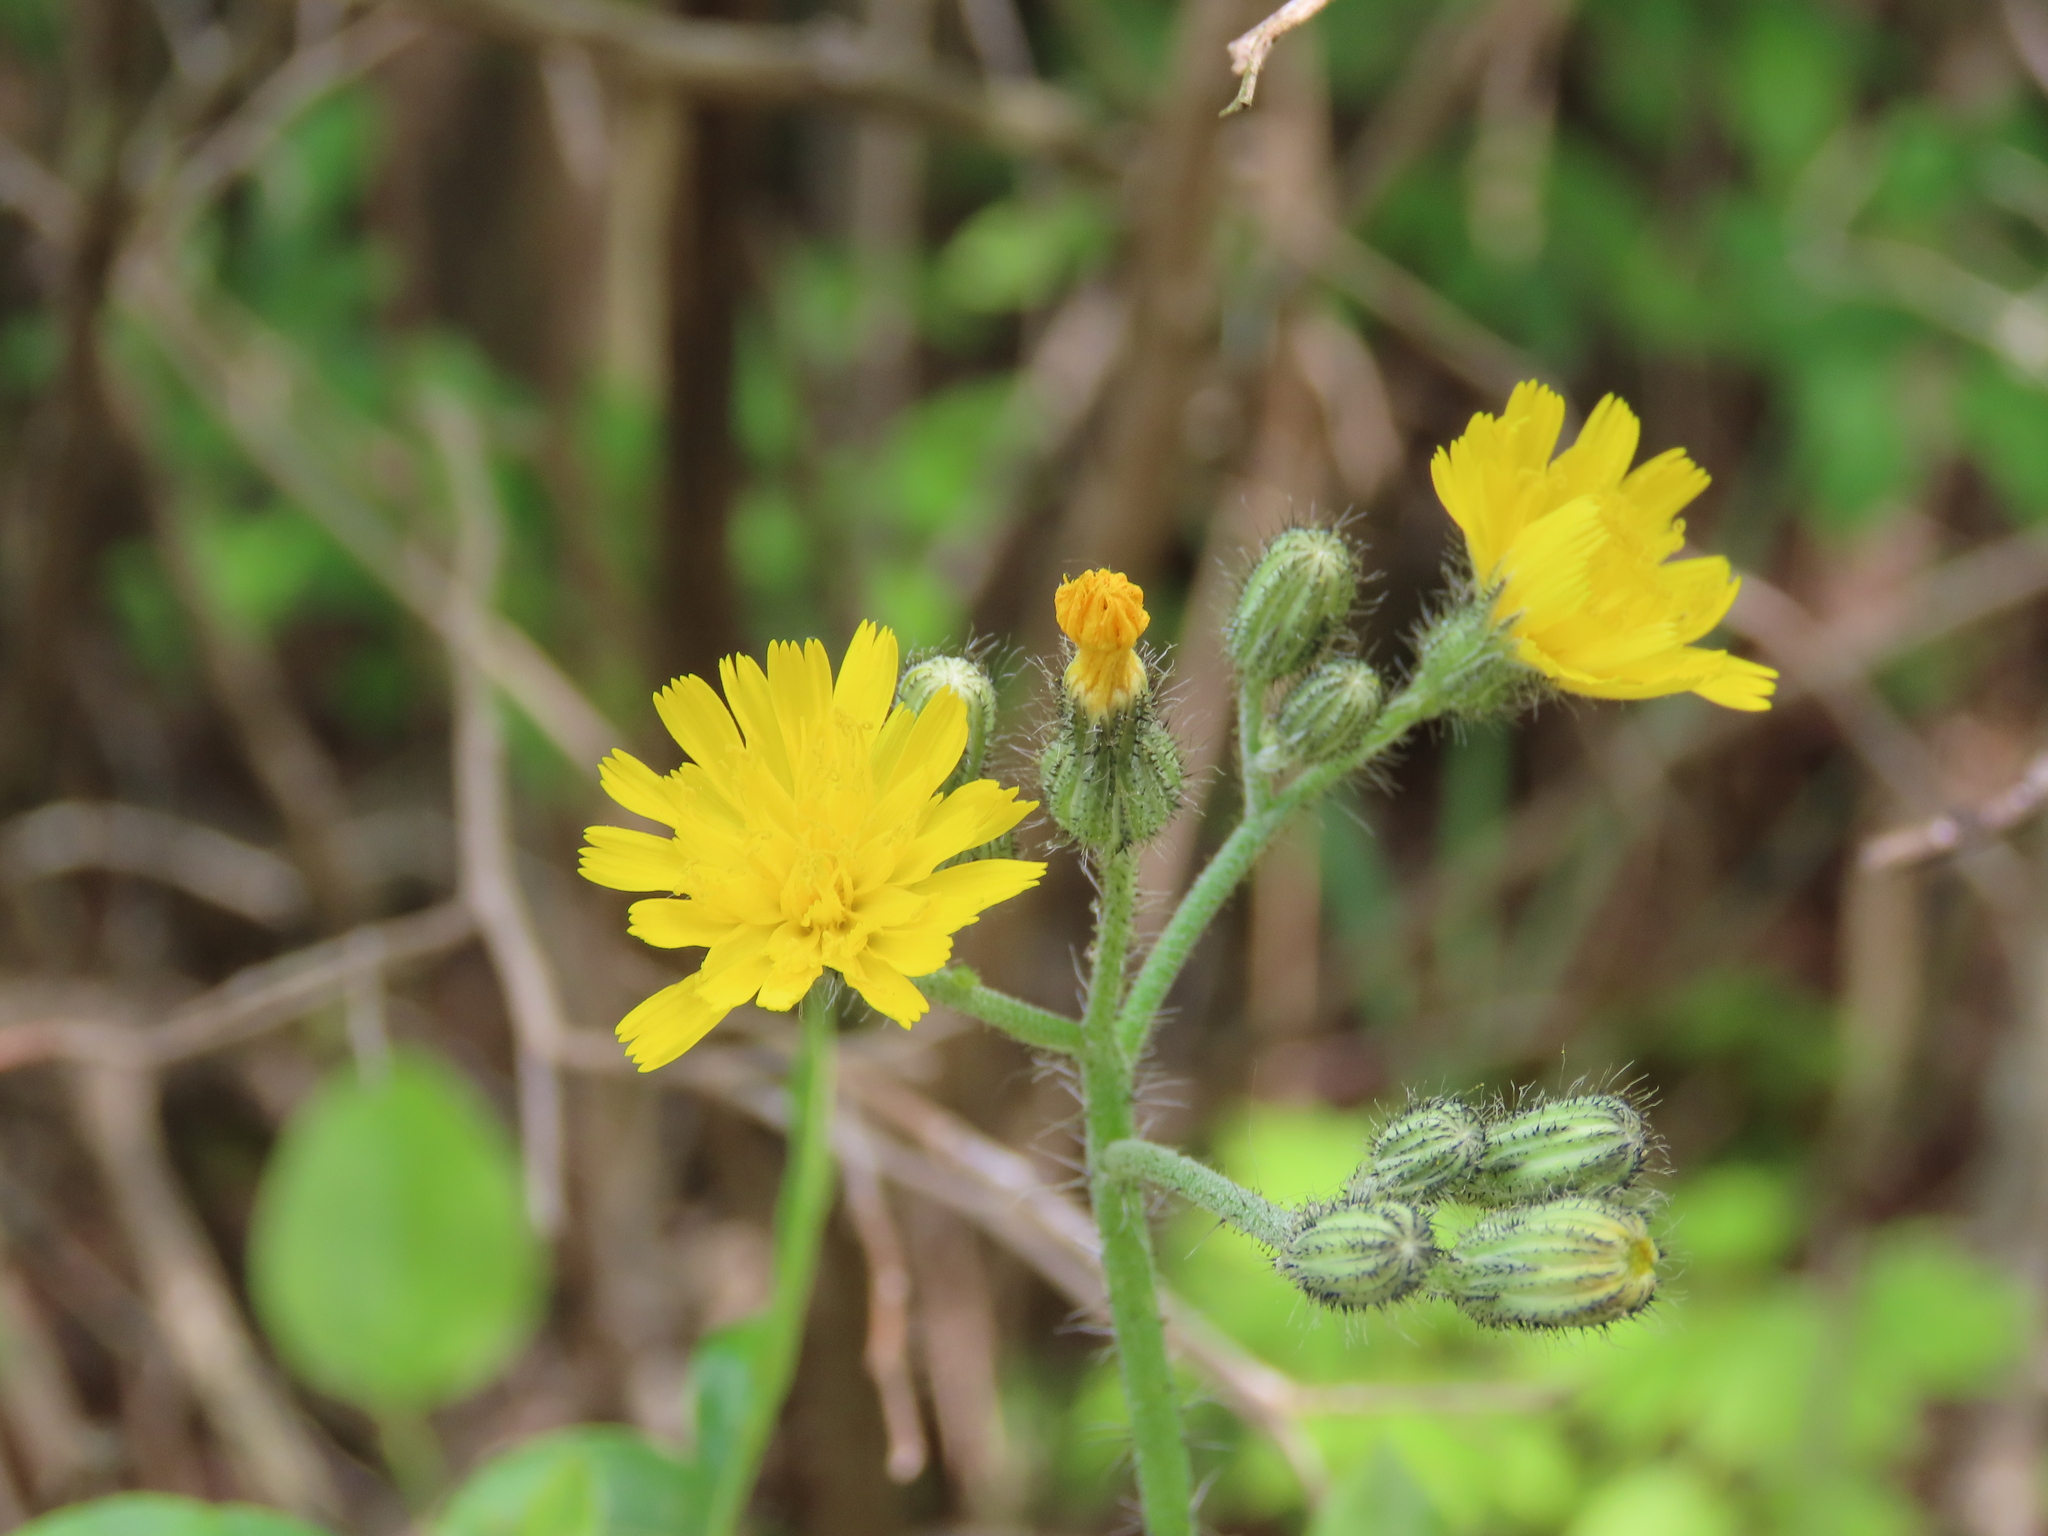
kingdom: Plantae
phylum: Tracheophyta
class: Magnoliopsida
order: Asterales
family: Asteraceae
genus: Pilosella
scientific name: Pilosella caespitosa
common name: Yellow fox-and-cubs
